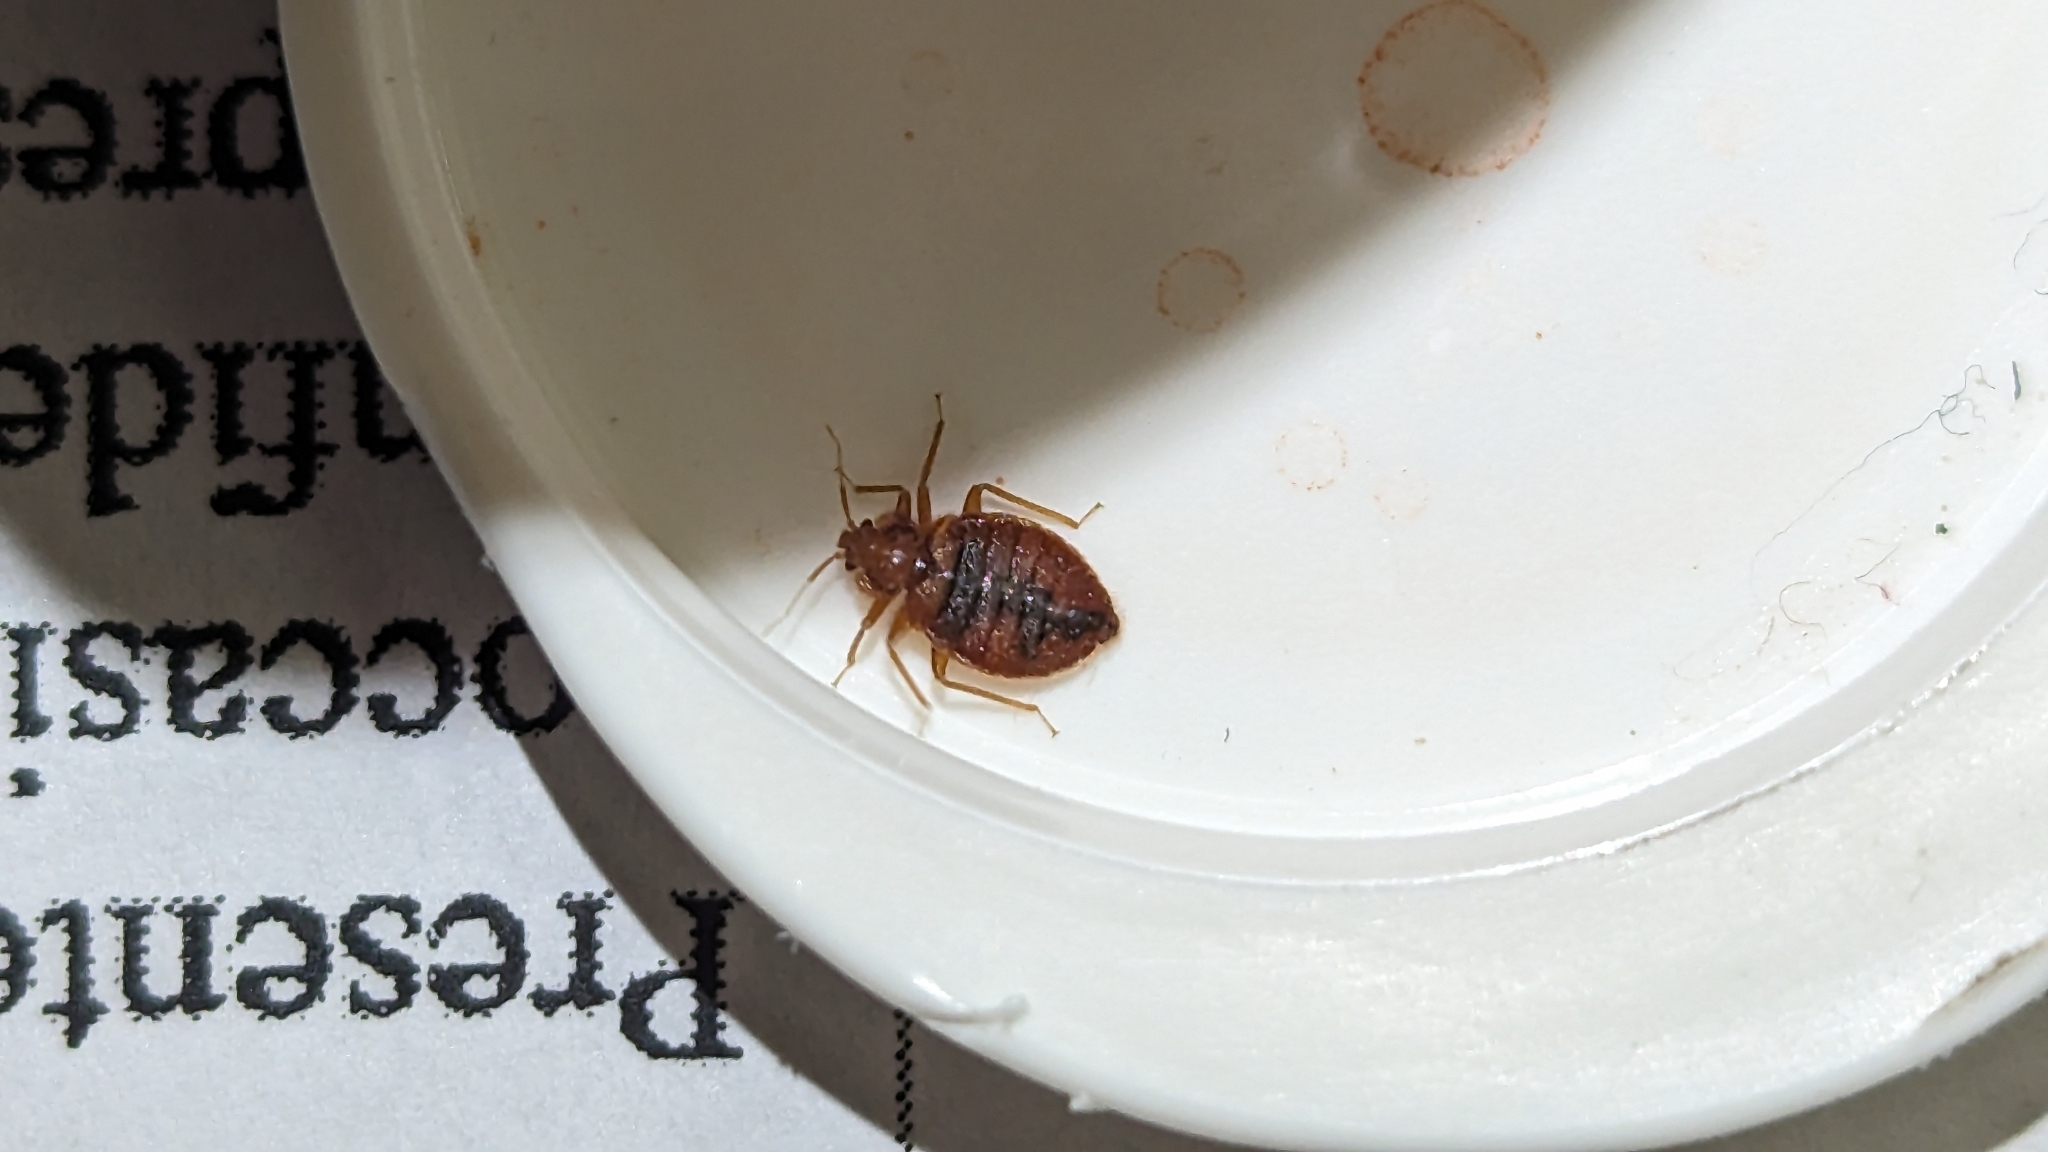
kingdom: Animalia
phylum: Arthropoda
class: Insecta
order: Hemiptera
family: Cimicidae
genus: Cimex
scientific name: Cimex lectularius
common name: Bed bug
